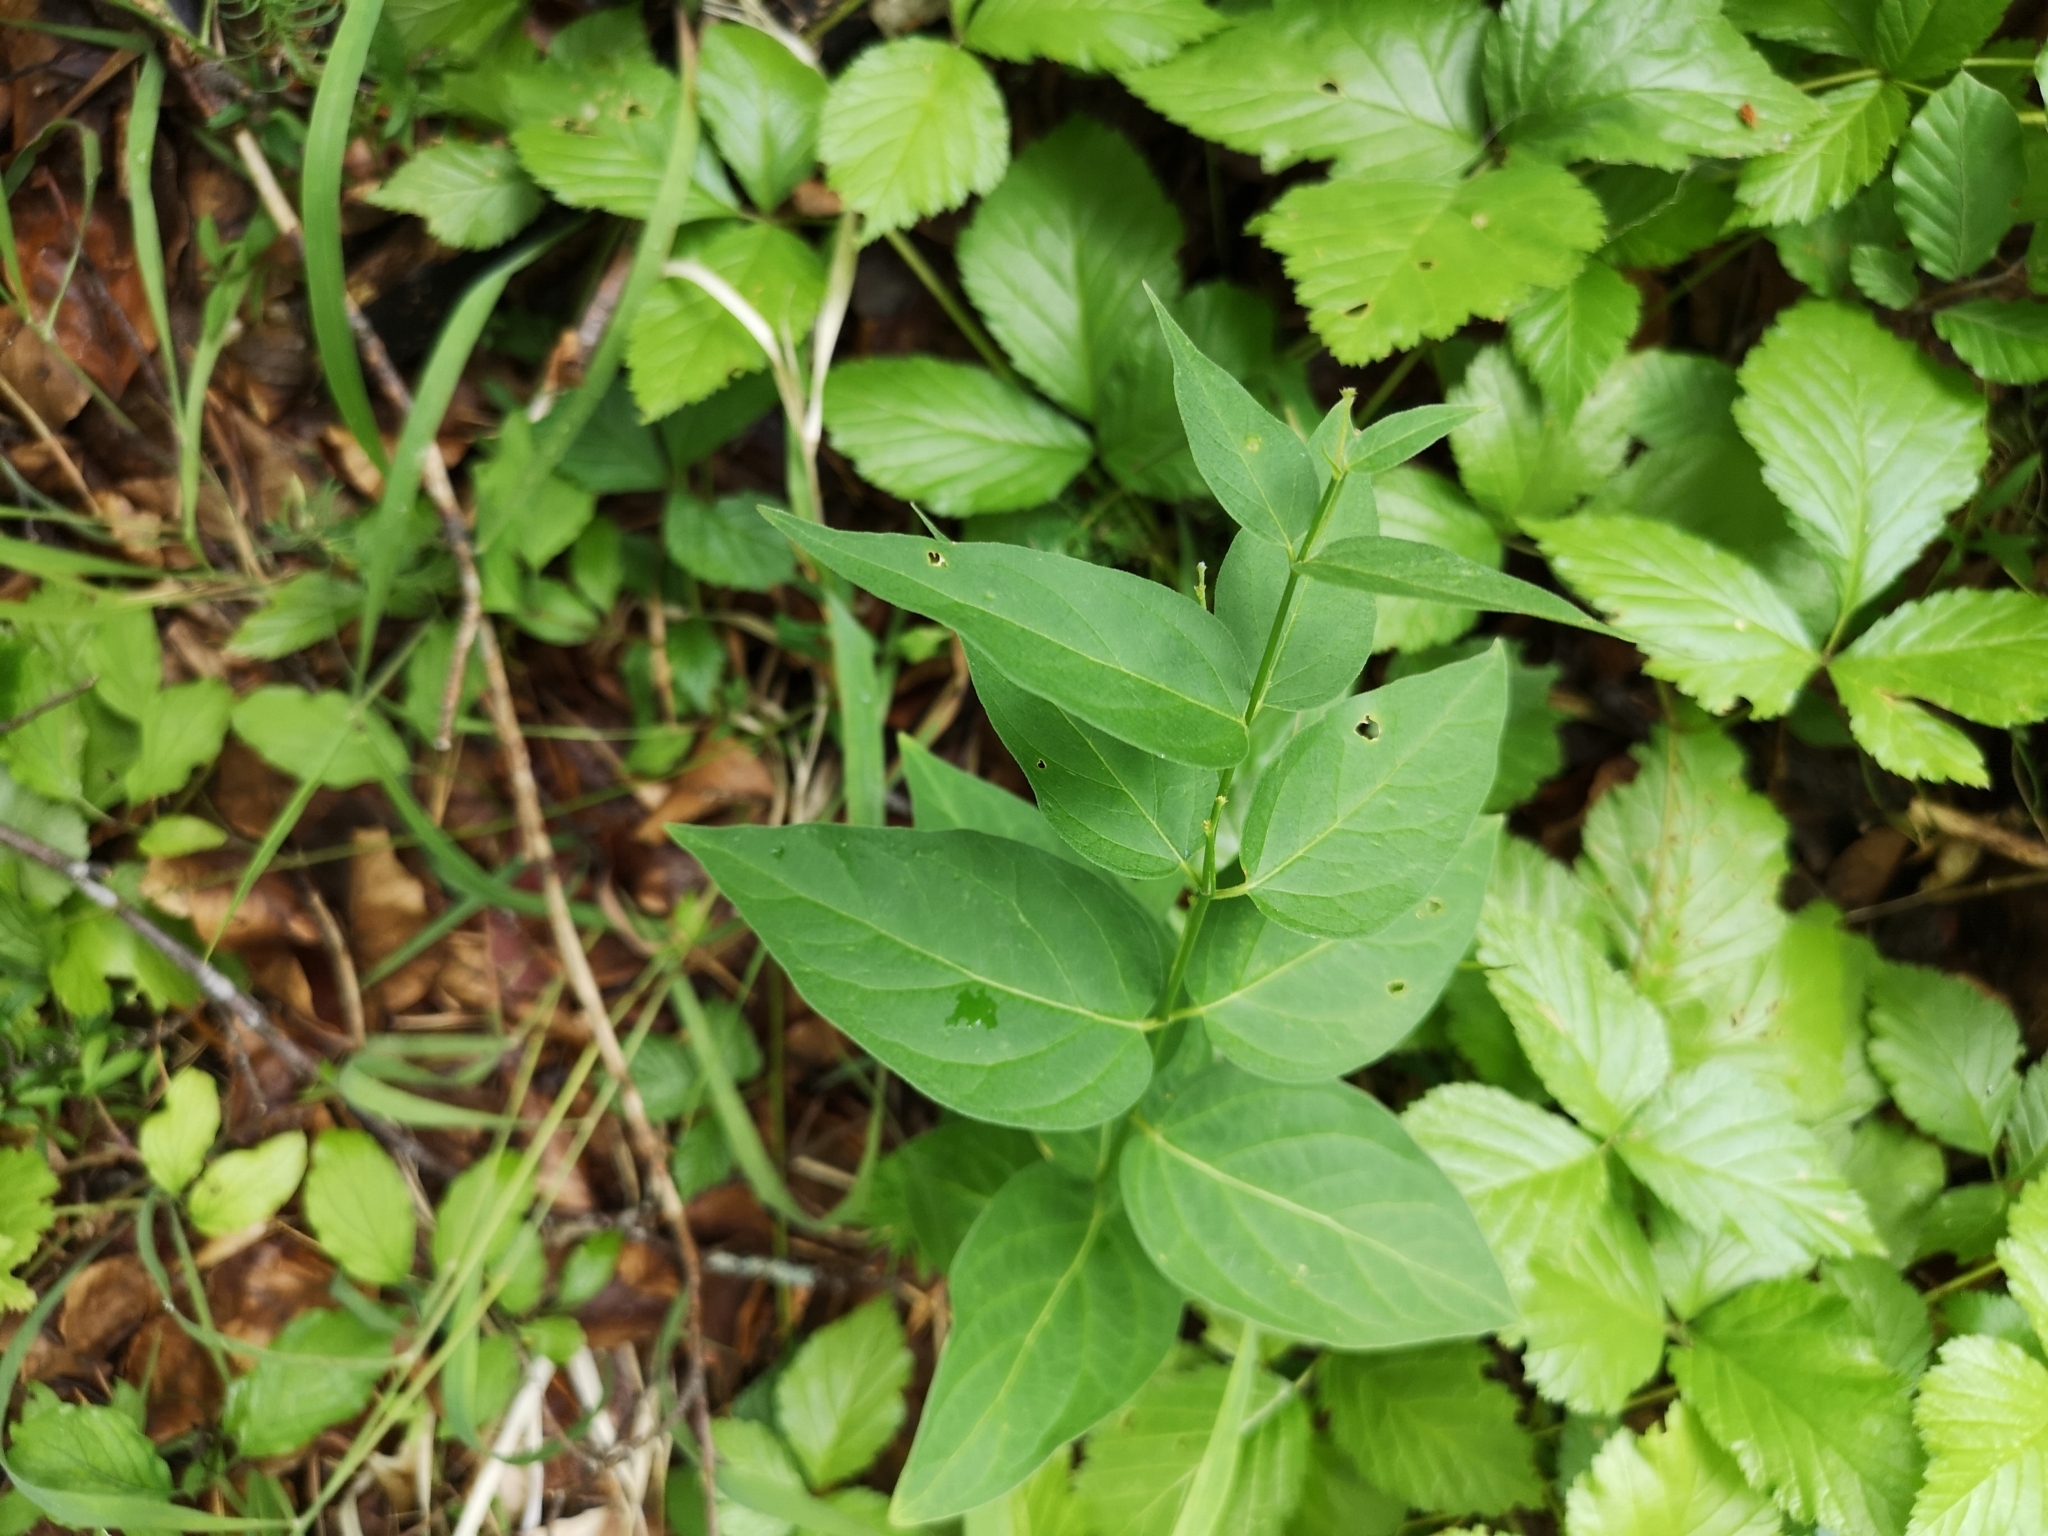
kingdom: Plantae
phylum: Tracheophyta
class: Magnoliopsida
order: Gentianales
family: Apocynaceae
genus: Vincetoxicum
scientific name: Vincetoxicum hirundinaria
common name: White swallowwort
